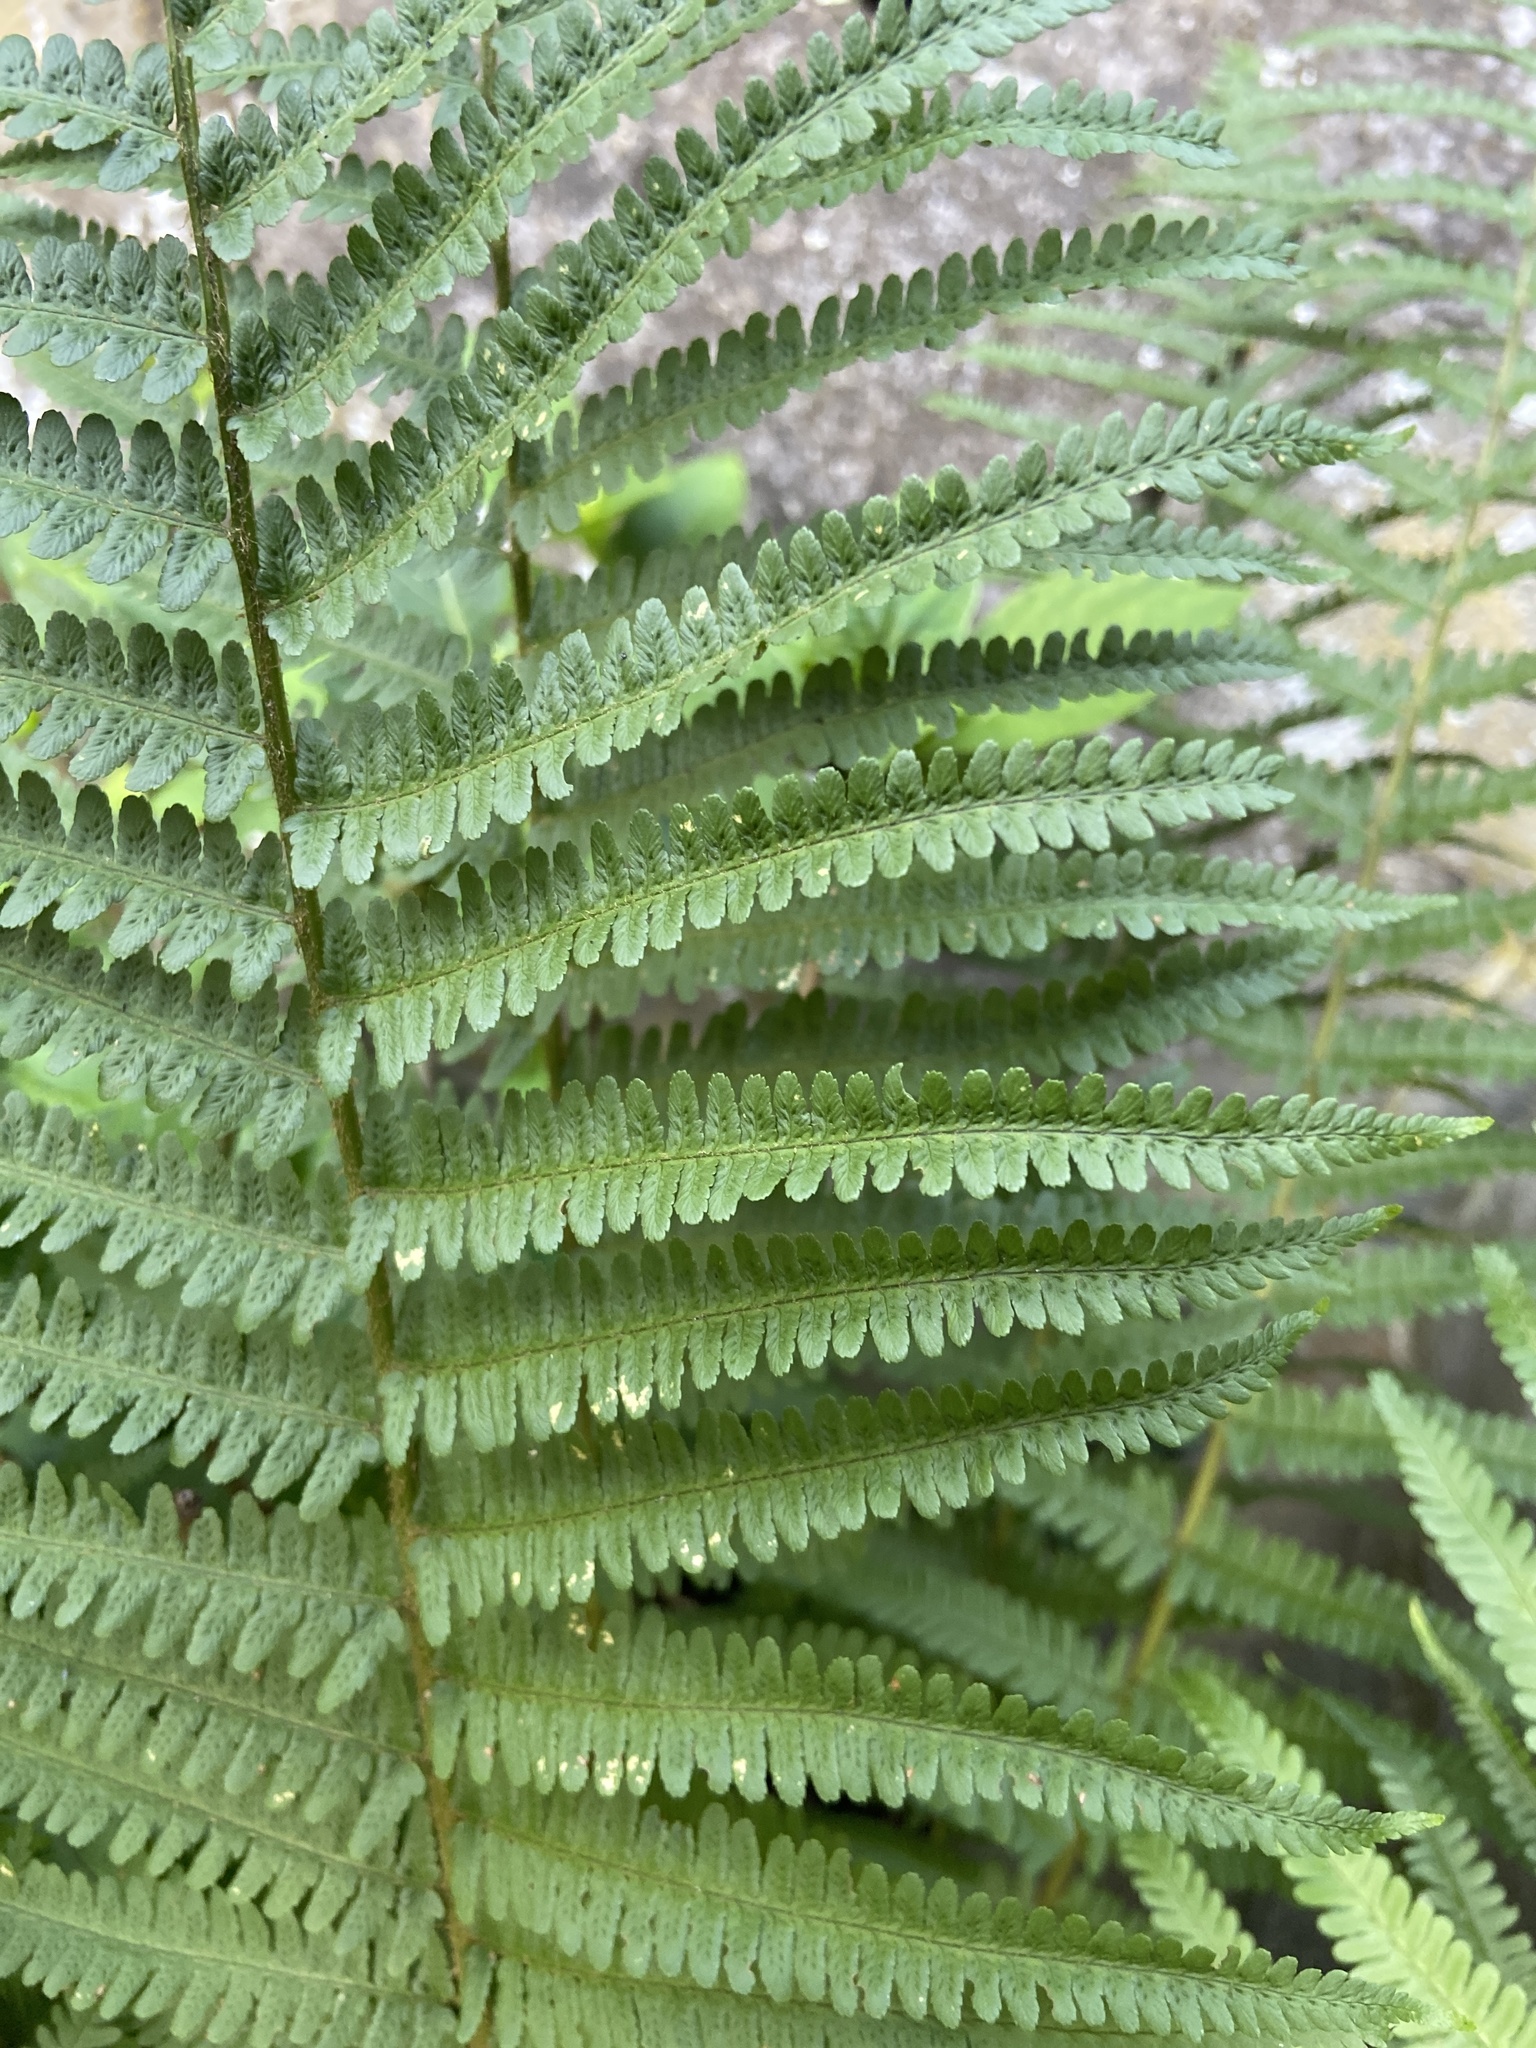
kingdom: Plantae
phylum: Tracheophyta
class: Polypodiopsida
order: Polypodiales
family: Dryopteridaceae
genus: Dryopteris
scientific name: Dryopteris filix-mas
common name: Male fern
